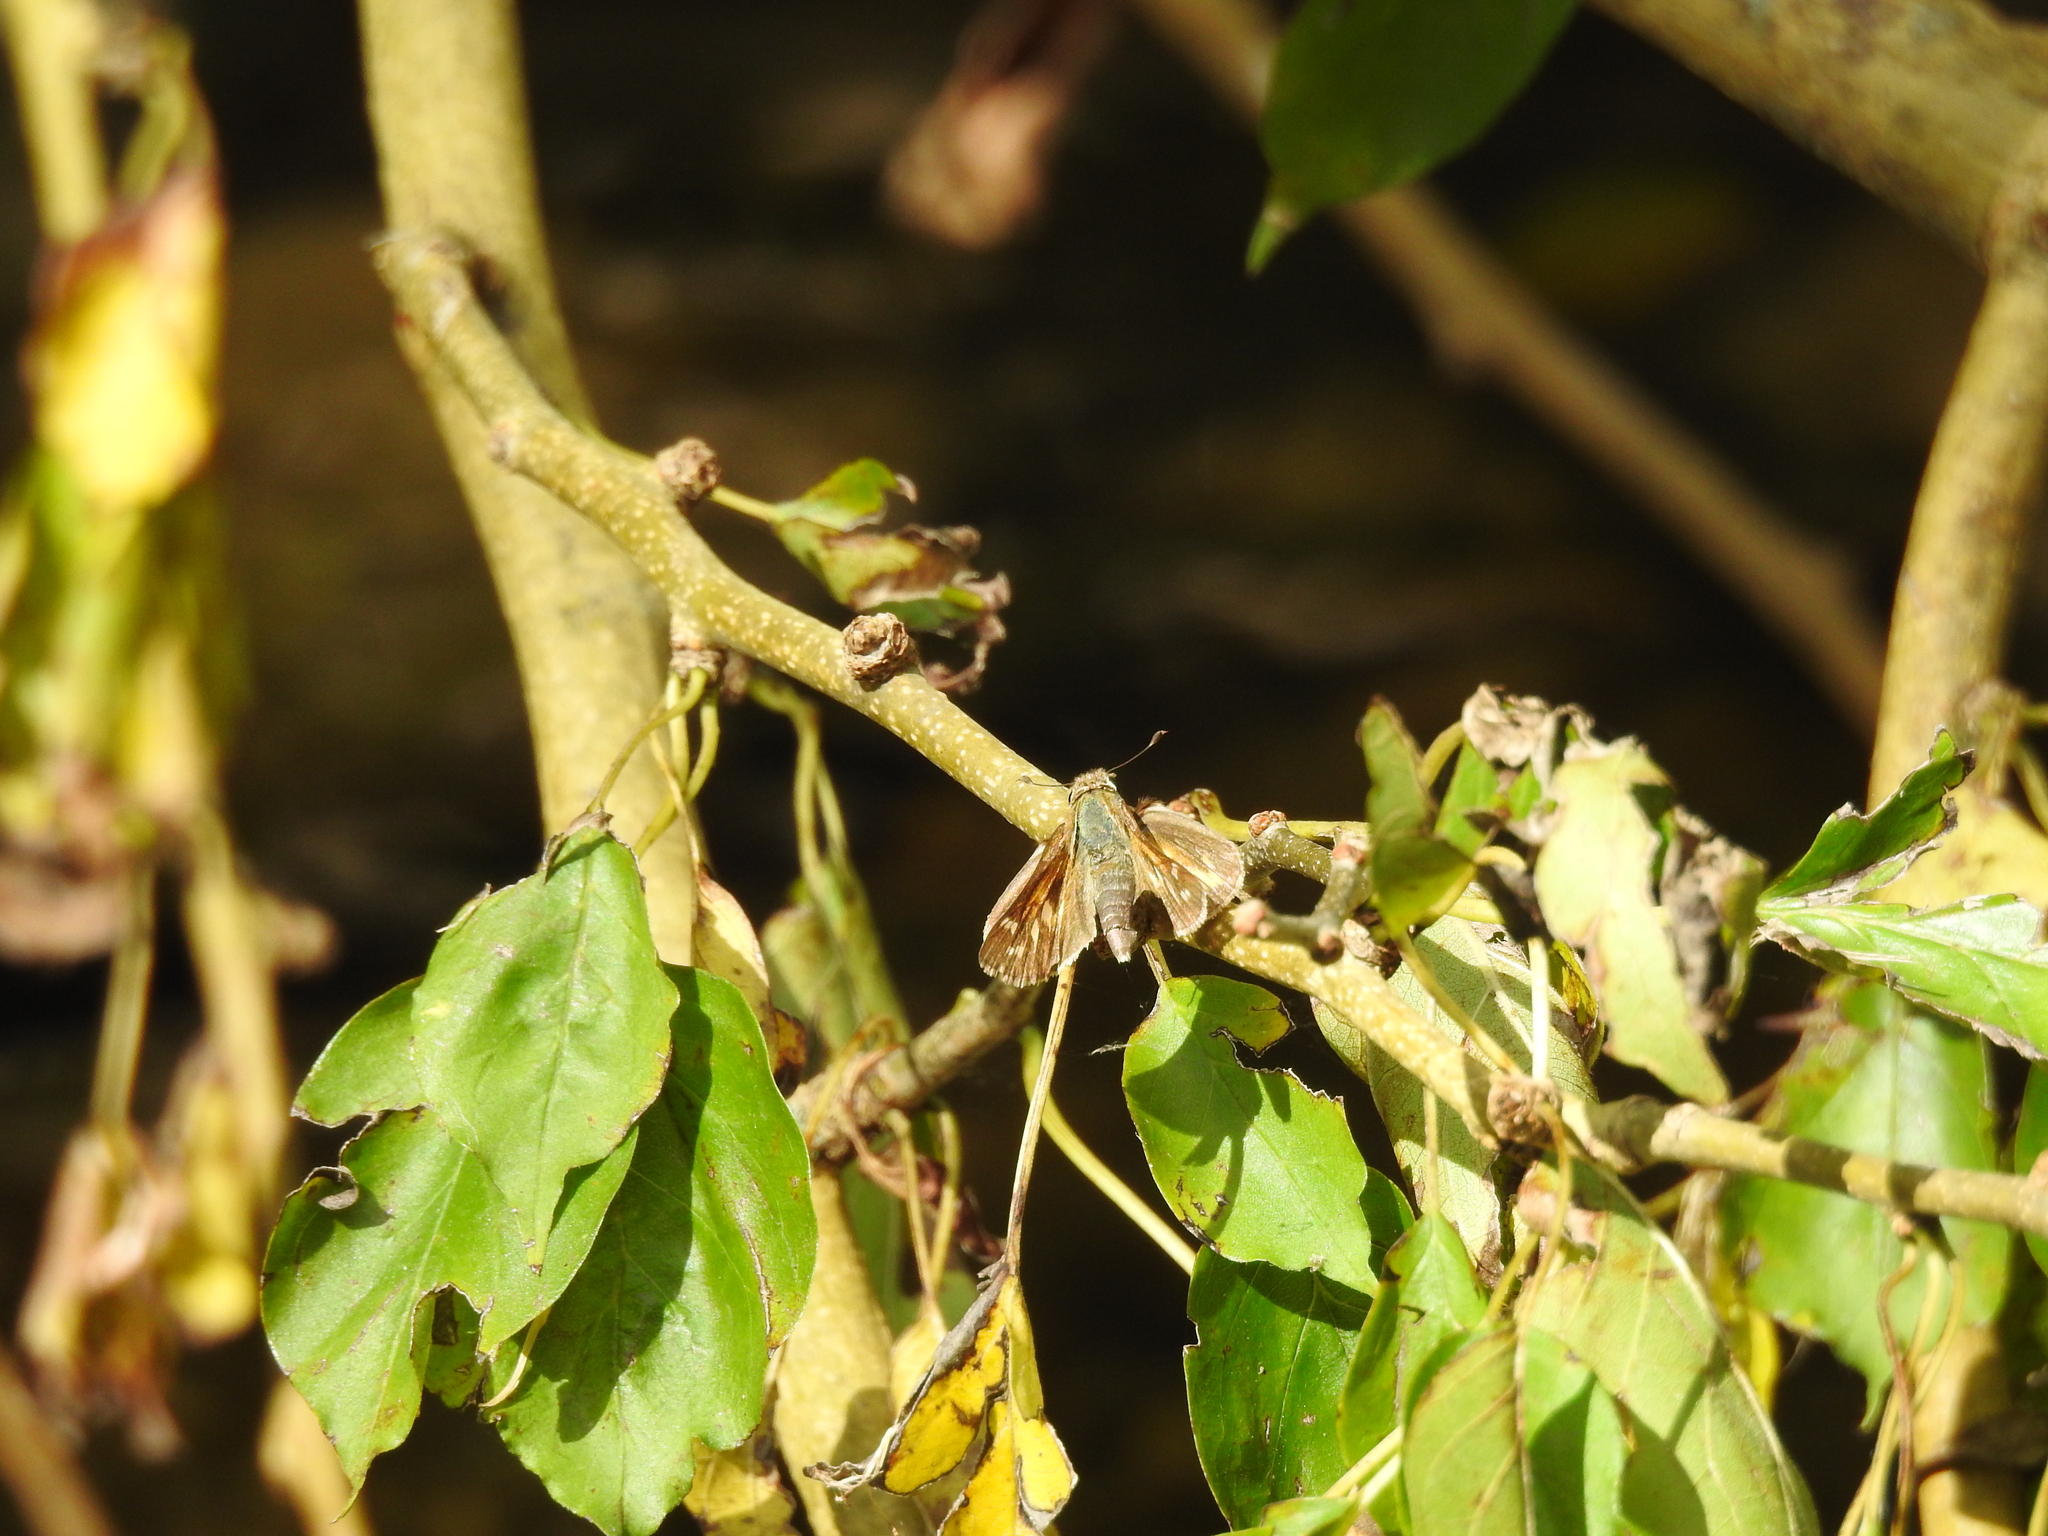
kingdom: Animalia
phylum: Arthropoda
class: Insecta
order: Lepidoptera
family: Hesperiidae
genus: Atalopedes
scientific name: Atalopedes
